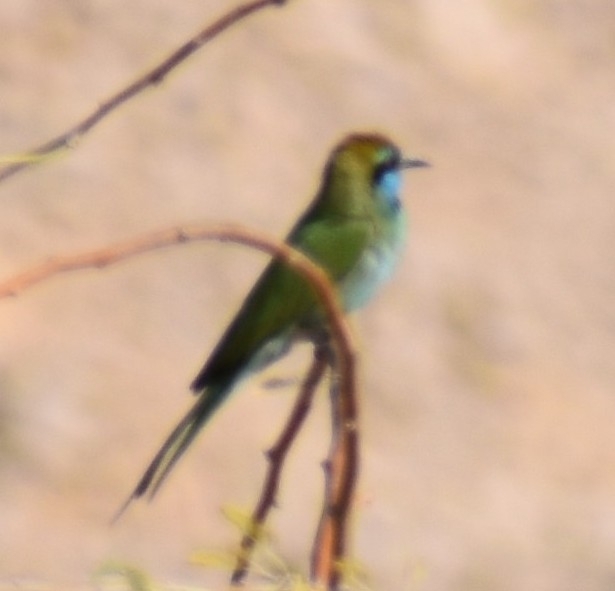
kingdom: Animalia
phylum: Chordata
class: Aves
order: Coraciiformes
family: Meropidae
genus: Merops
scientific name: Merops cyanophrys
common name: Arabian green bee-eater
